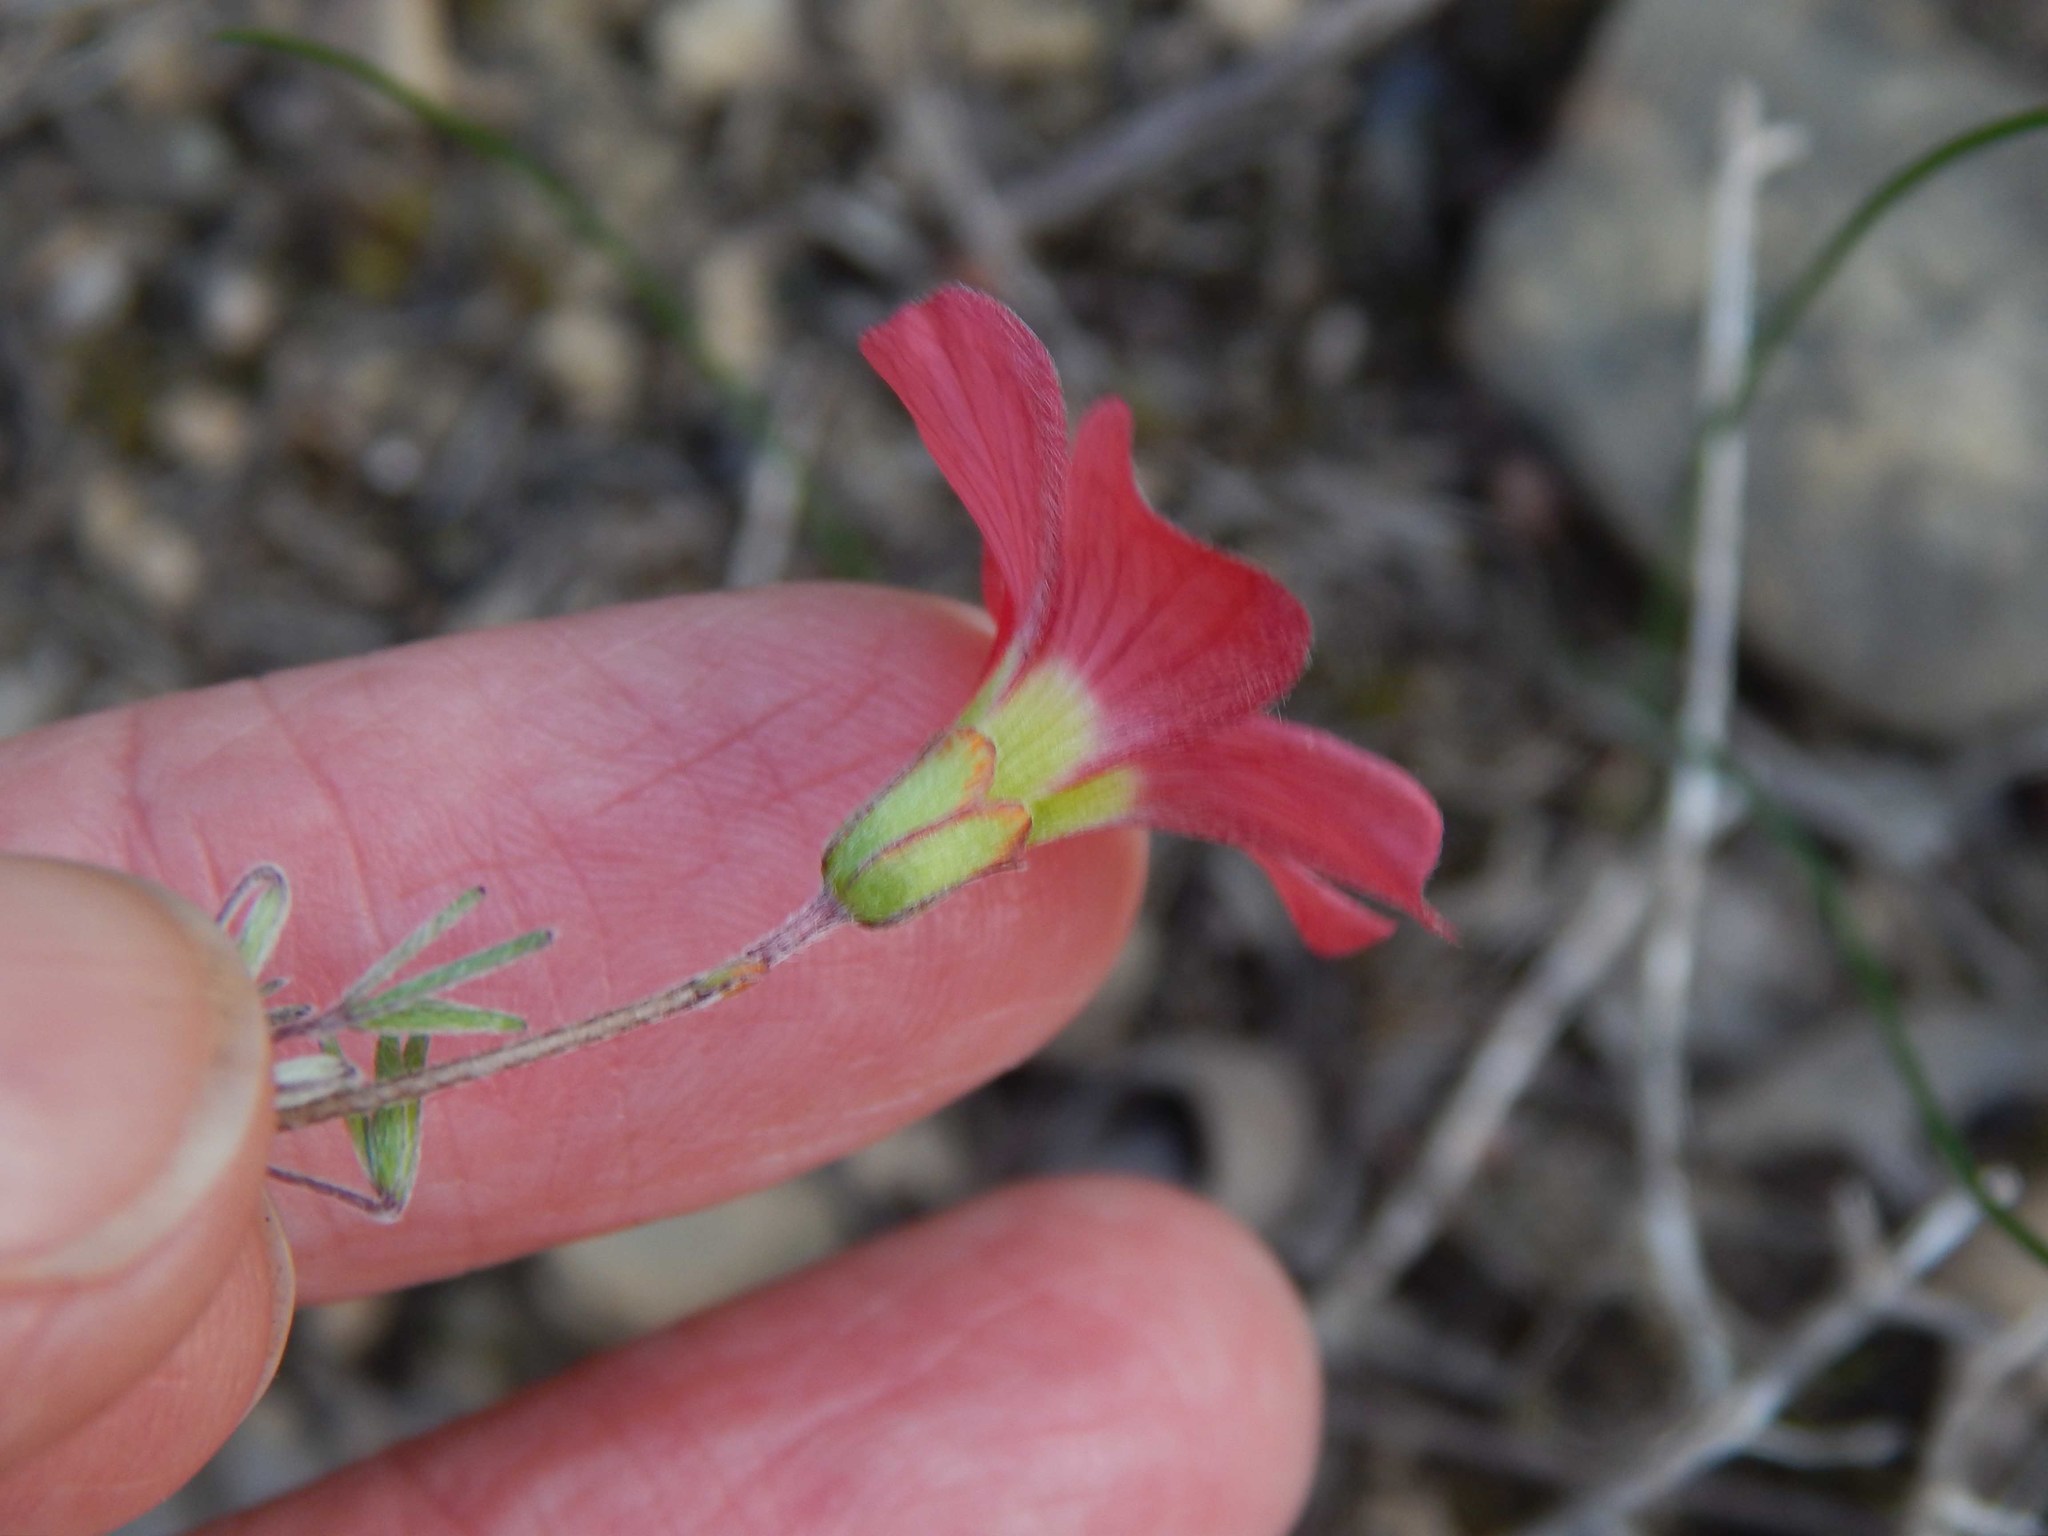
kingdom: Plantae
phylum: Tracheophyta
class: Magnoliopsida
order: Oxalidales
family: Oxalidaceae
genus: Oxalis
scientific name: Oxalis pendulifolia
